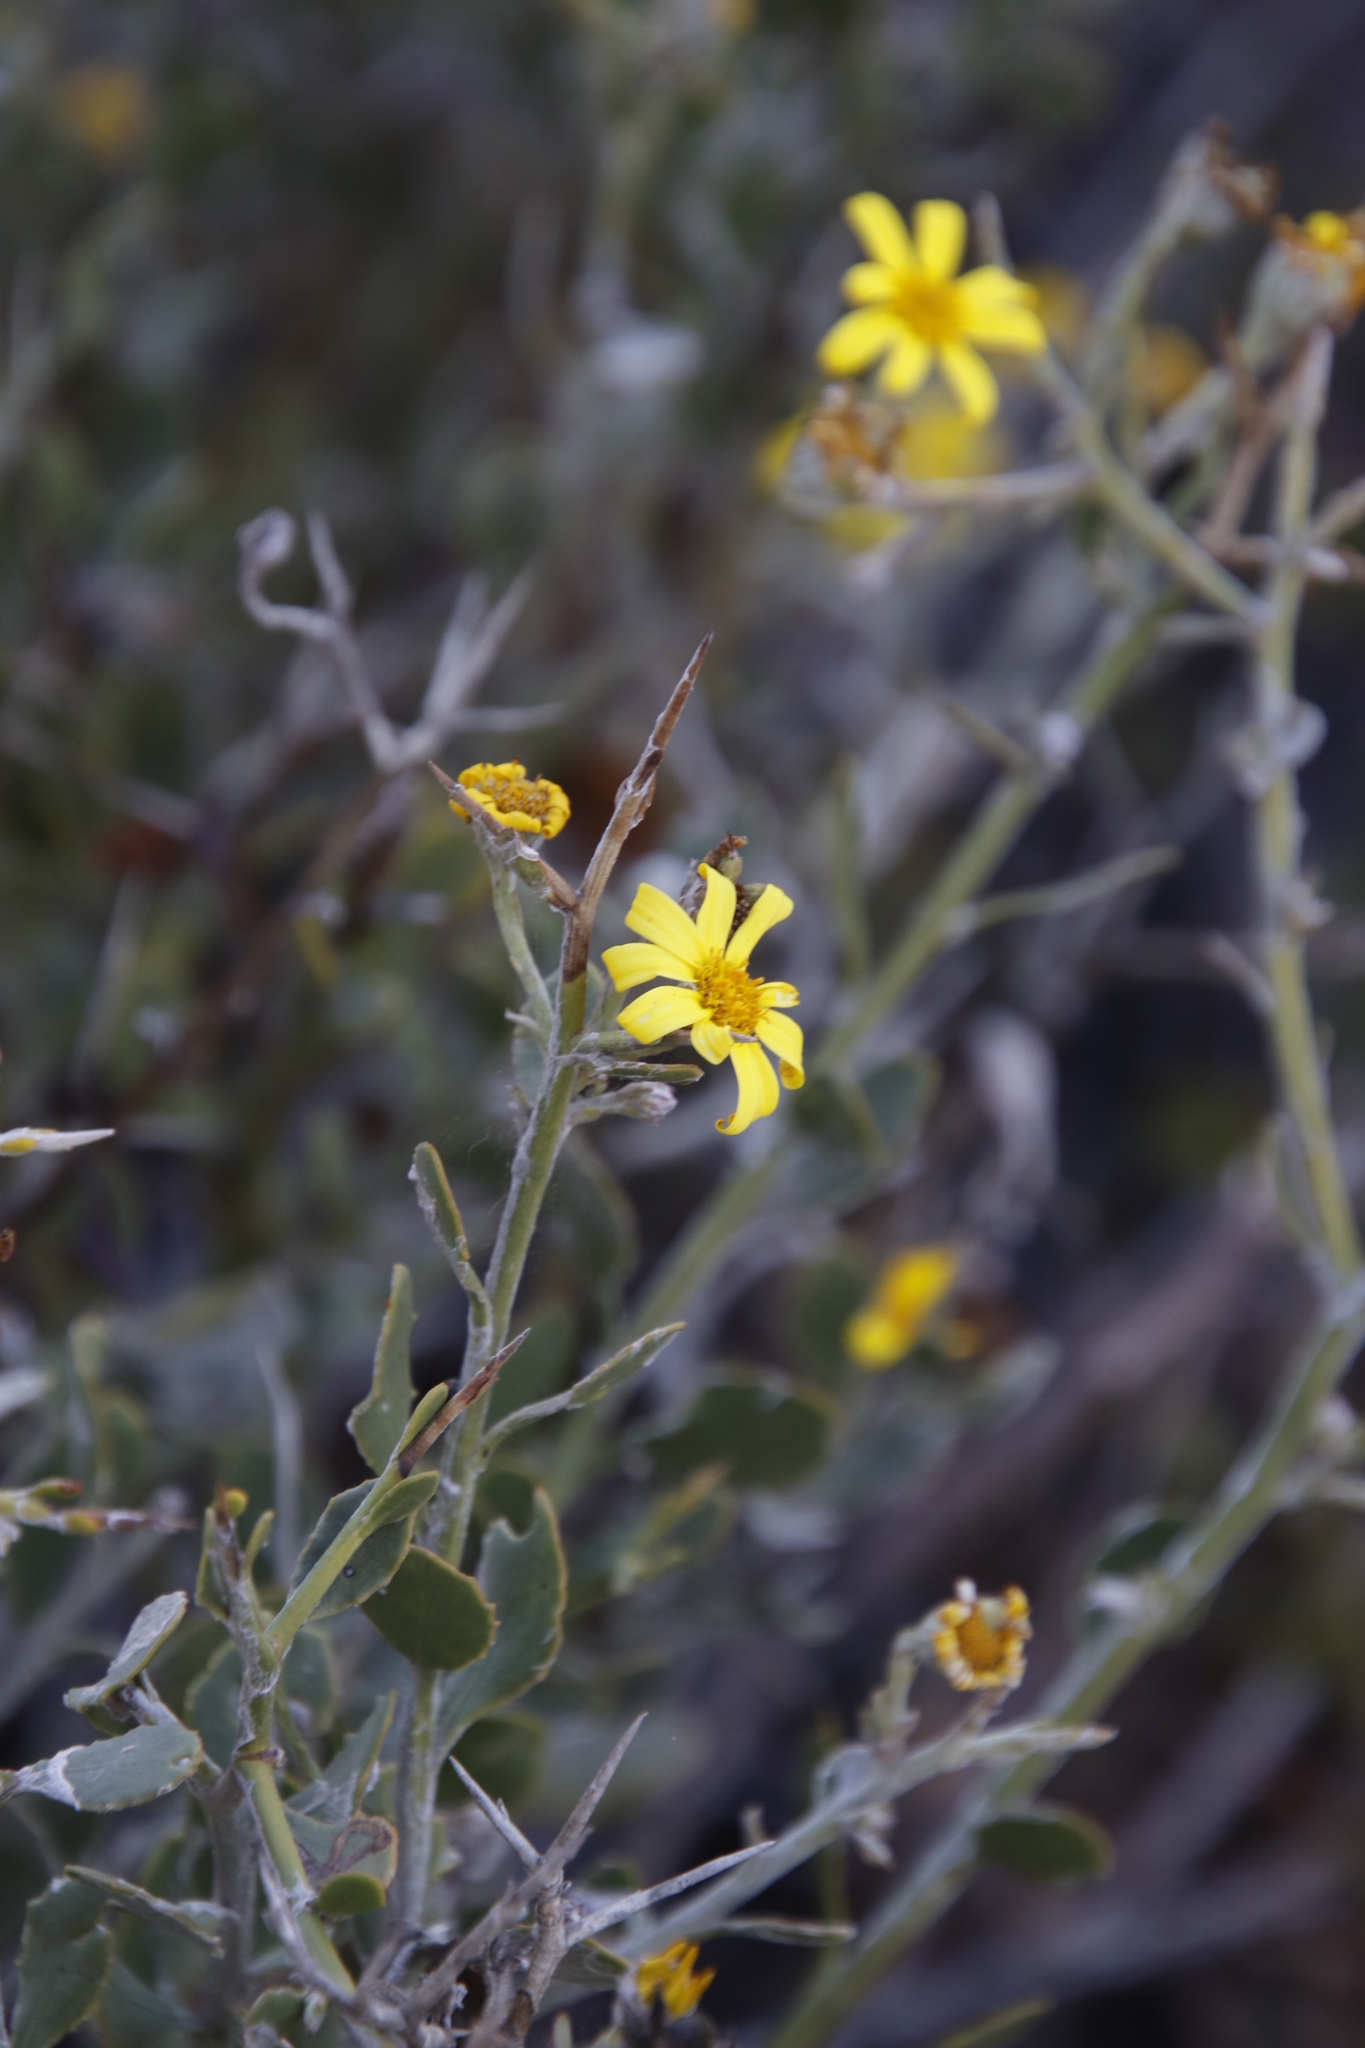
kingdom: Plantae
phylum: Tracheophyta
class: Magnoliopsida
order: Asterales
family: Asteraceae
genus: Osteospermum
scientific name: Osteospermum incanum
